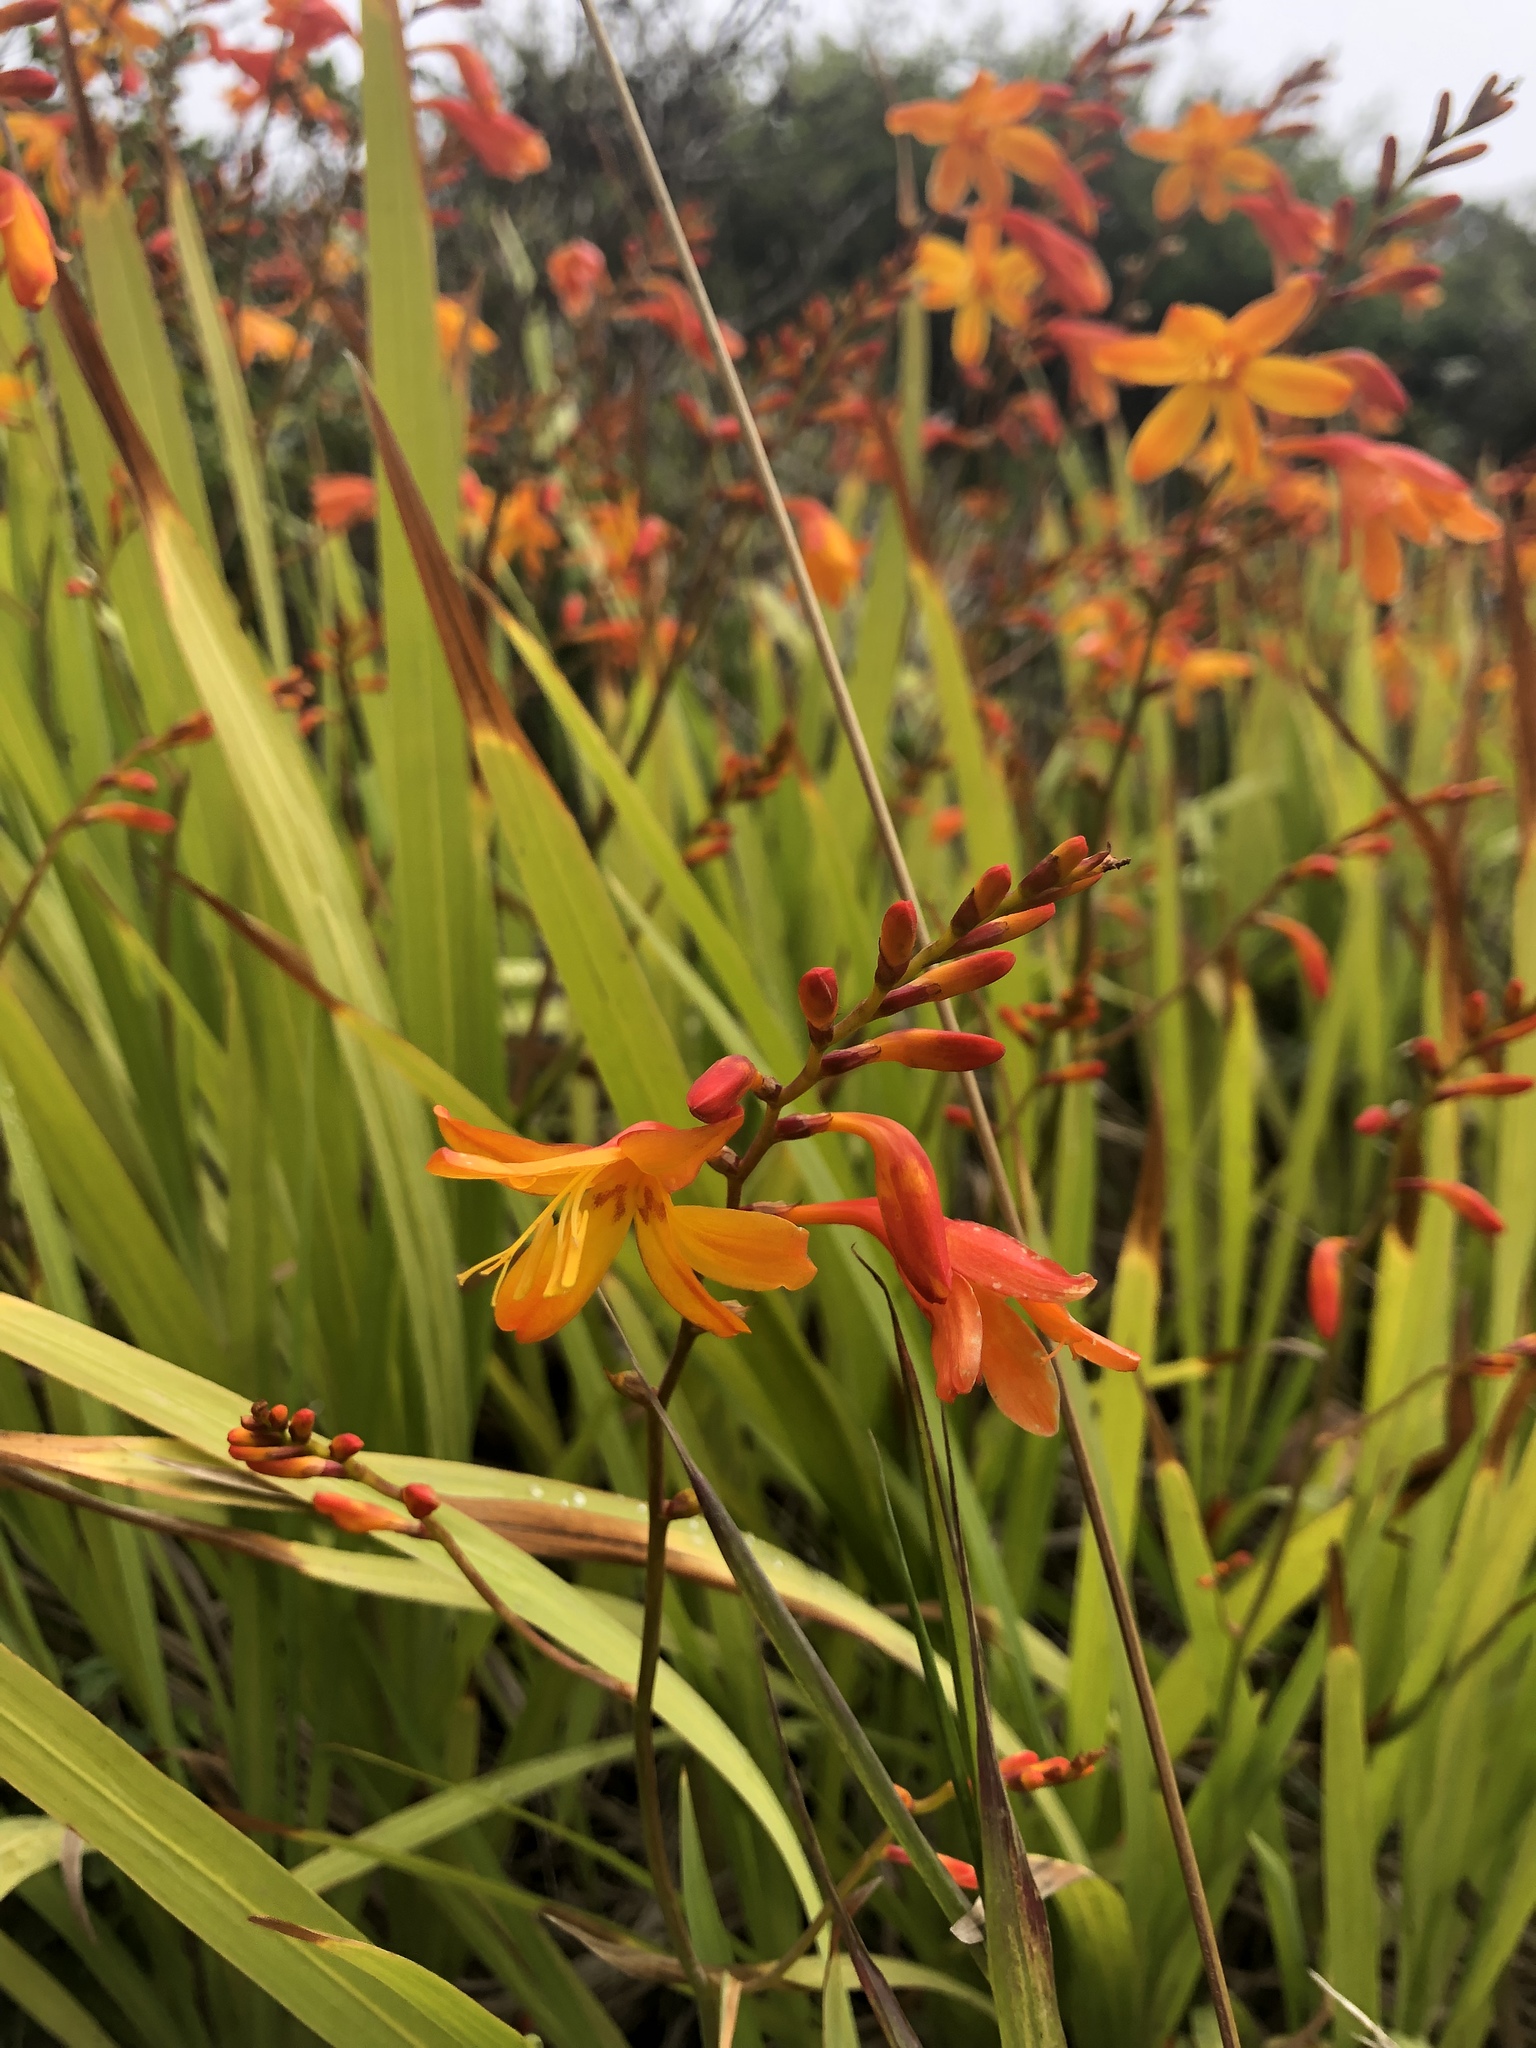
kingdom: Plantae
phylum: Tracheophyta
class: Liliopsida
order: Asparagales
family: Iridaceae
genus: Crocosmia
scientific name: Crocosmia crocosmiiflora
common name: Montbretia
